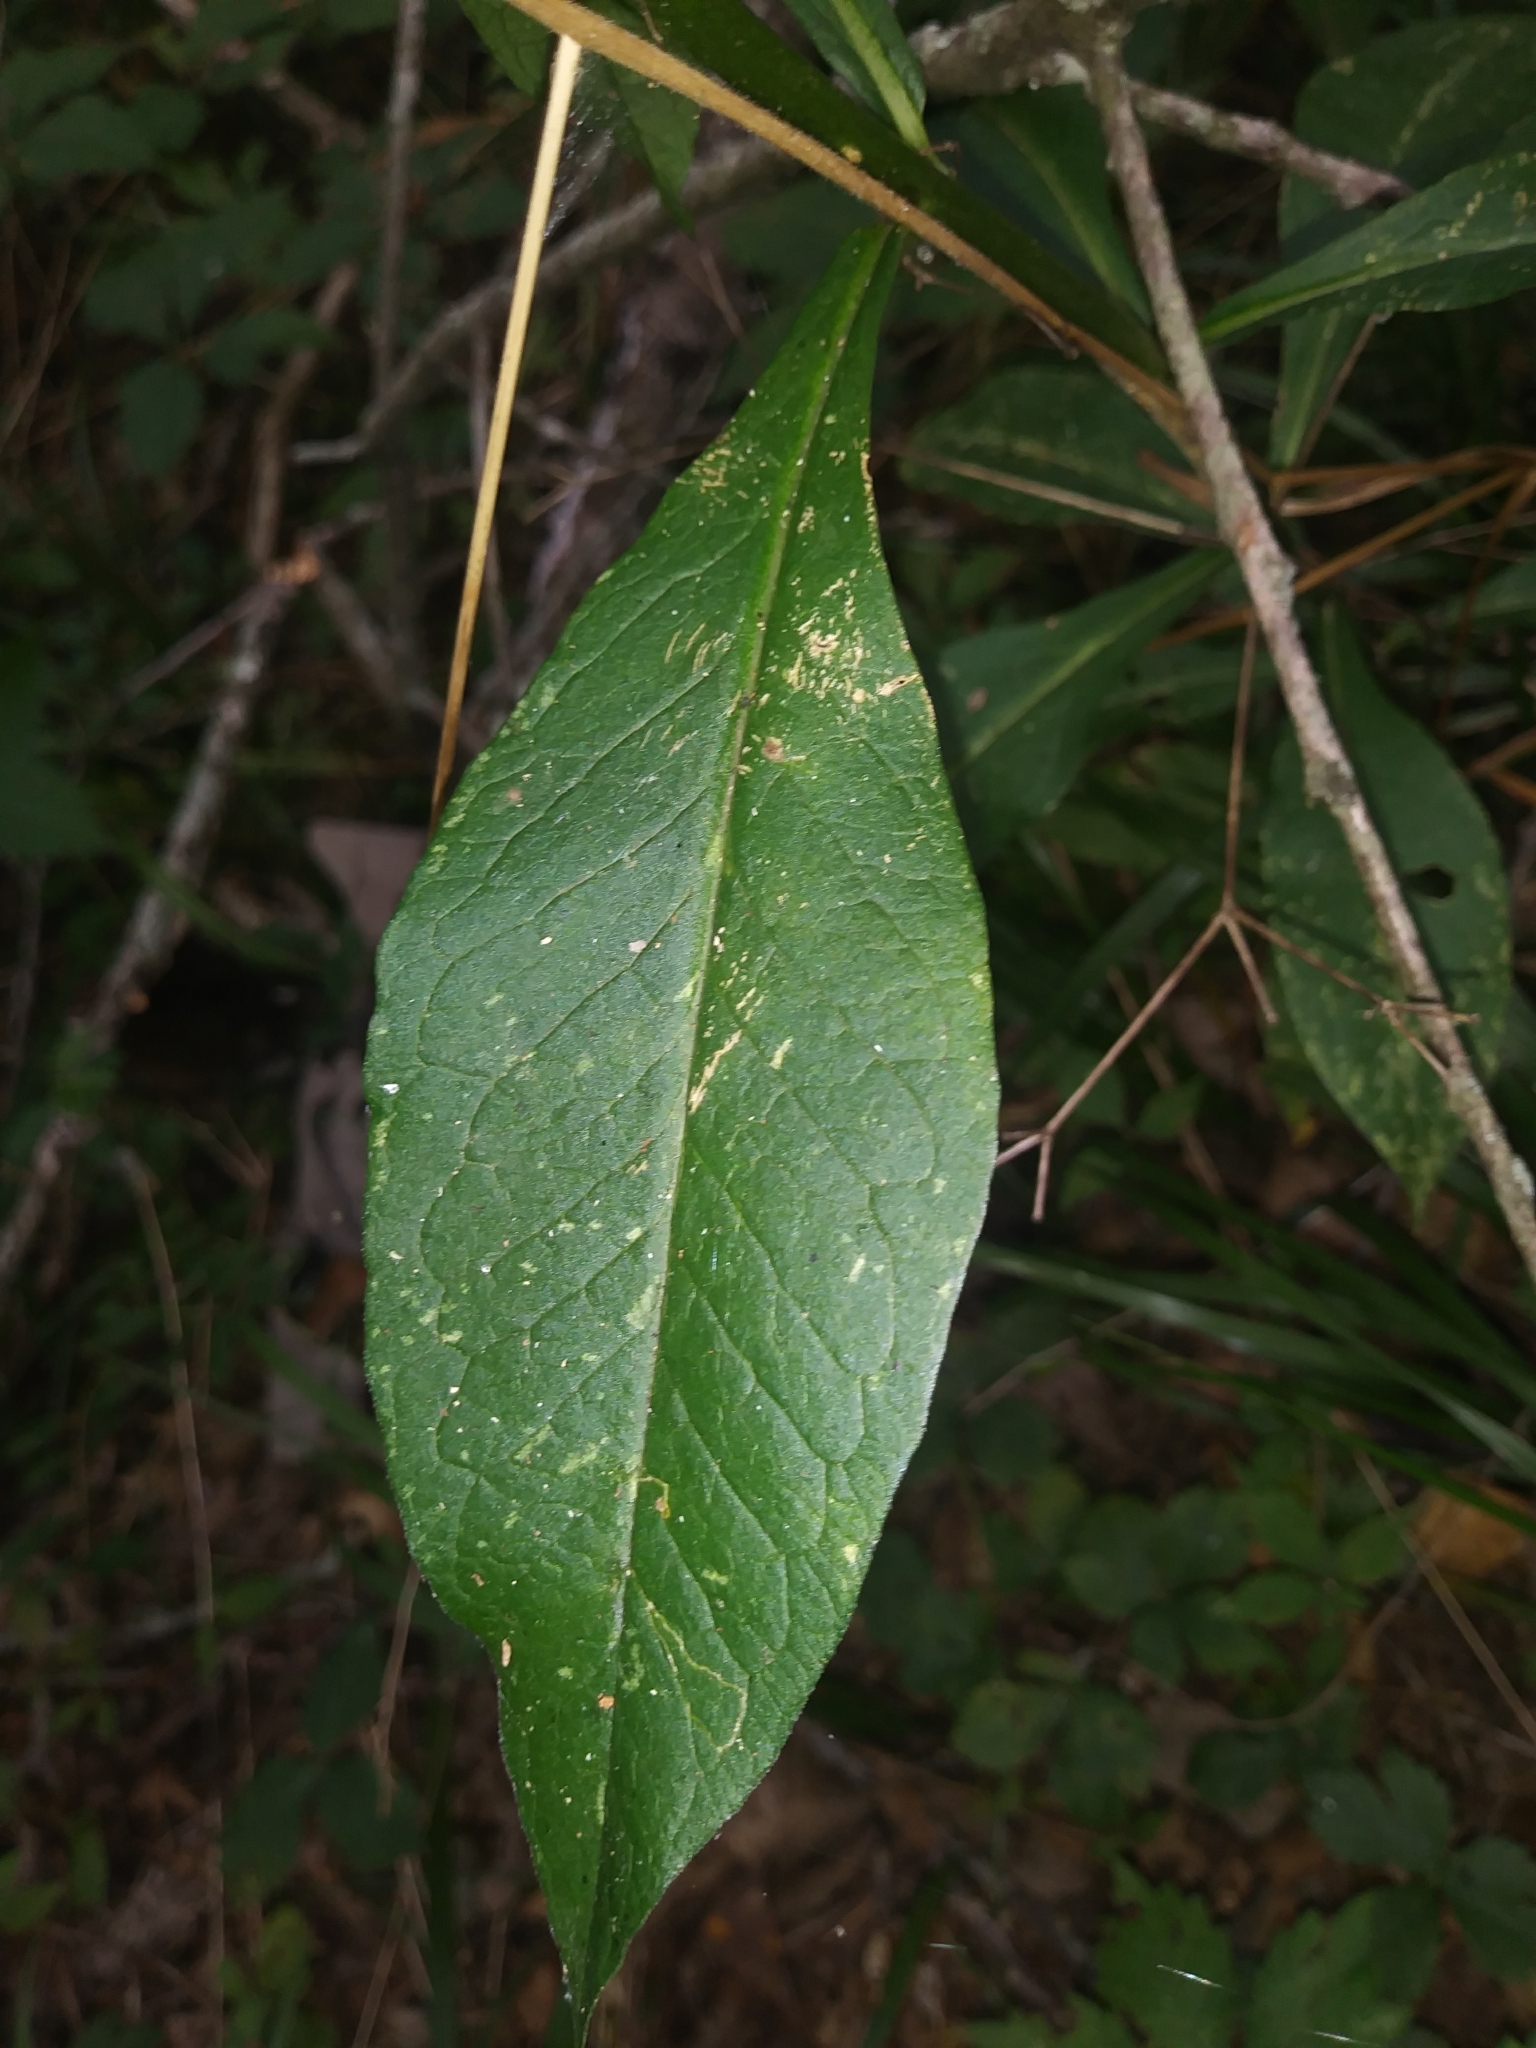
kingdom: Plantae
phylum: Tracheophyta
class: Magnoliopsida
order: Ericales
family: Polemoniaceae
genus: Phlox
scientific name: Phlox paniculata
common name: Fall phlox
